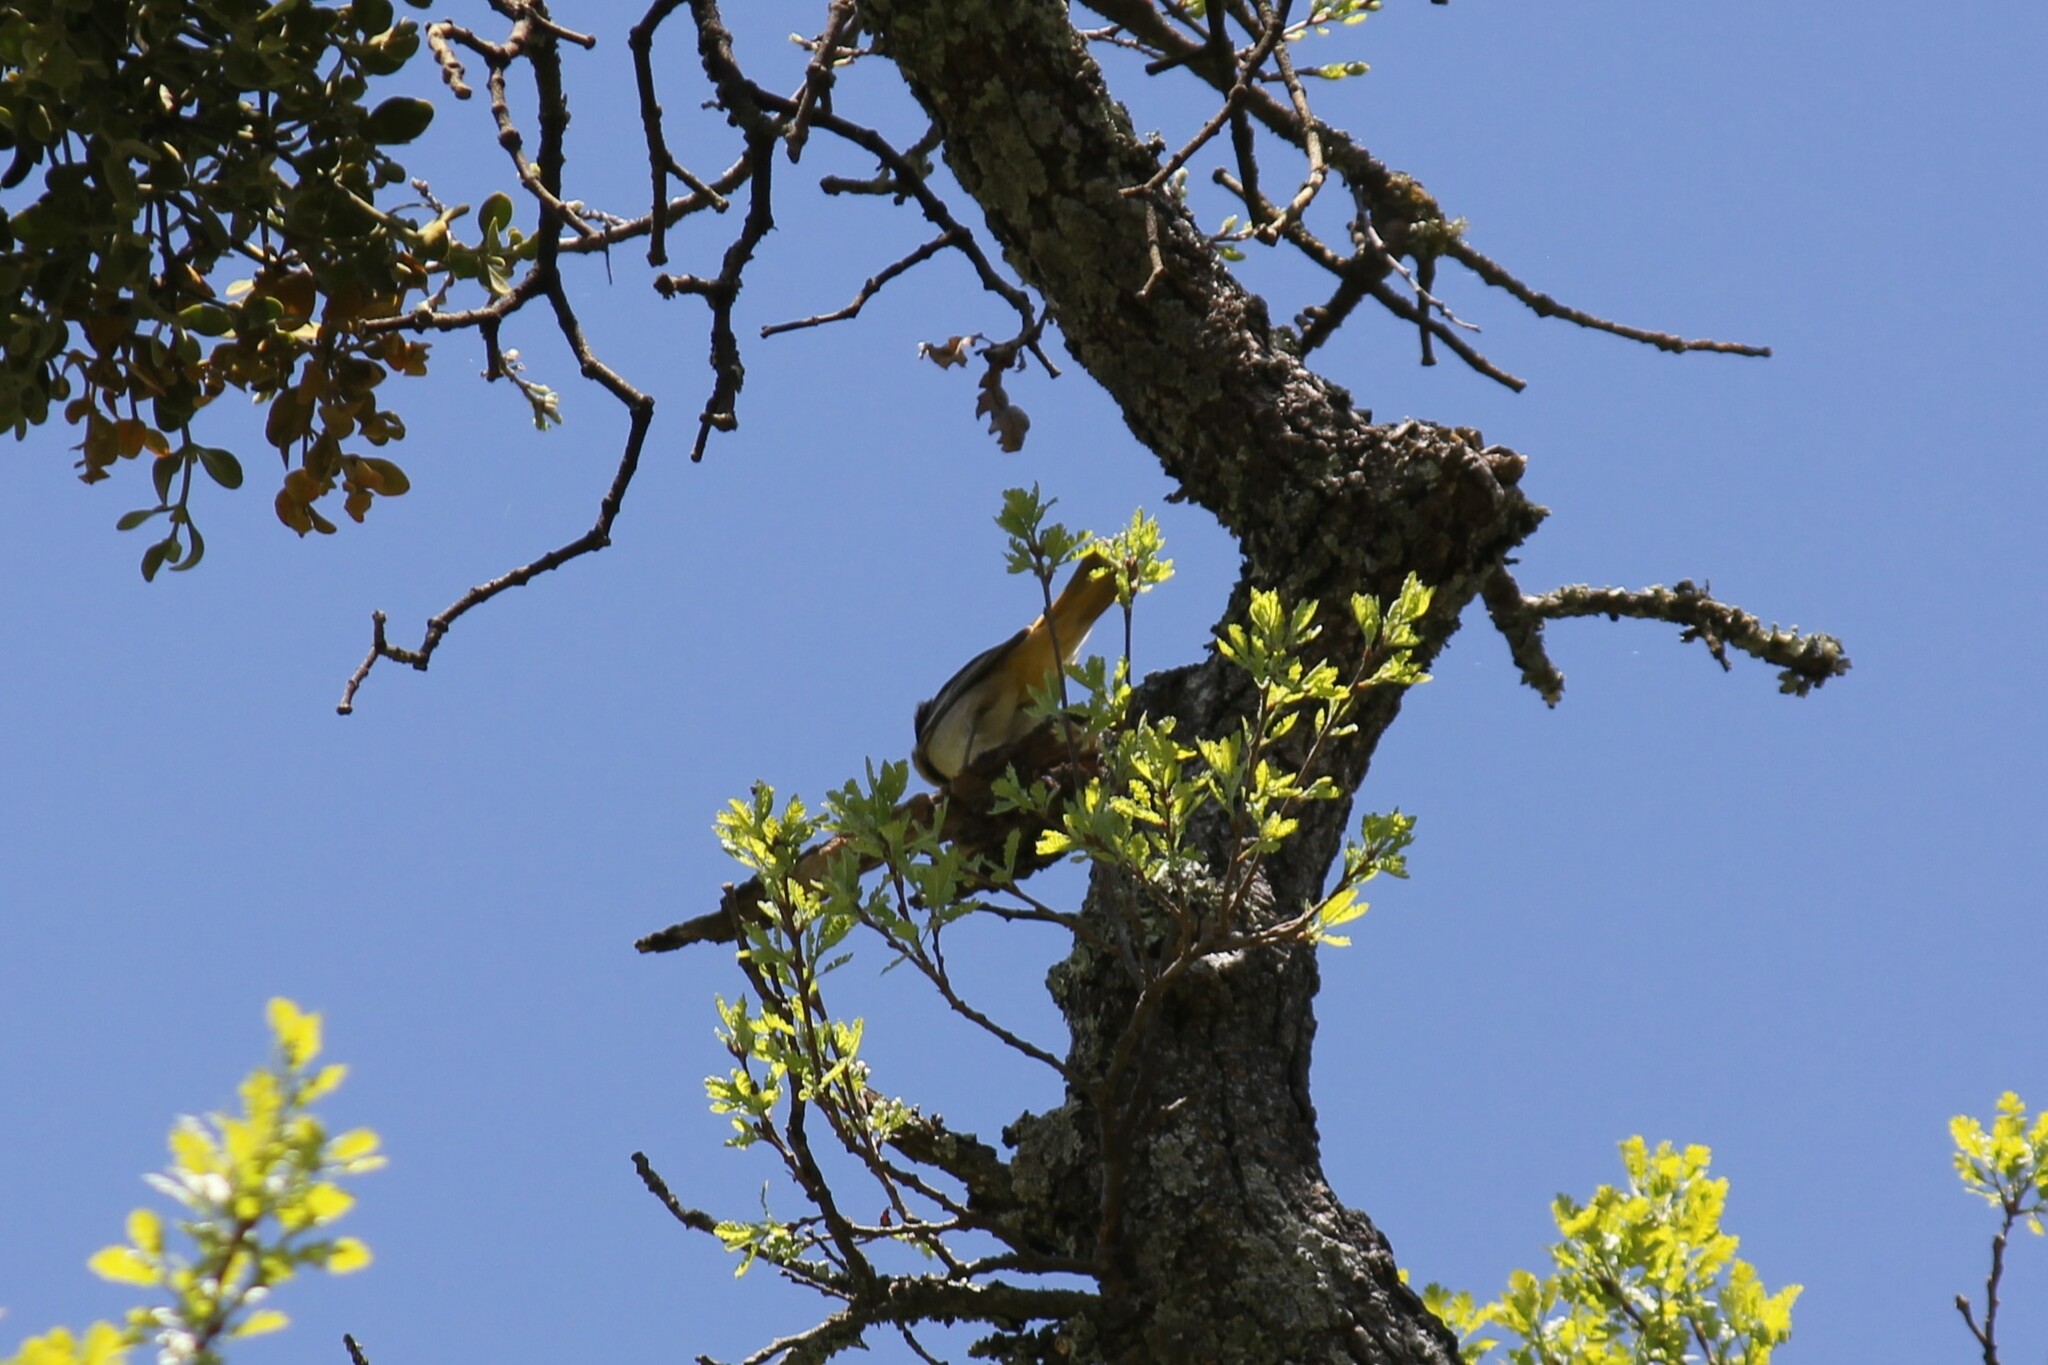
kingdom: Animalia
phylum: Chordata
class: Aves
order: Passeriformes
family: Icteridae
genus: Icterus
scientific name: Icterus bullockii
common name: Bullock's oriole
